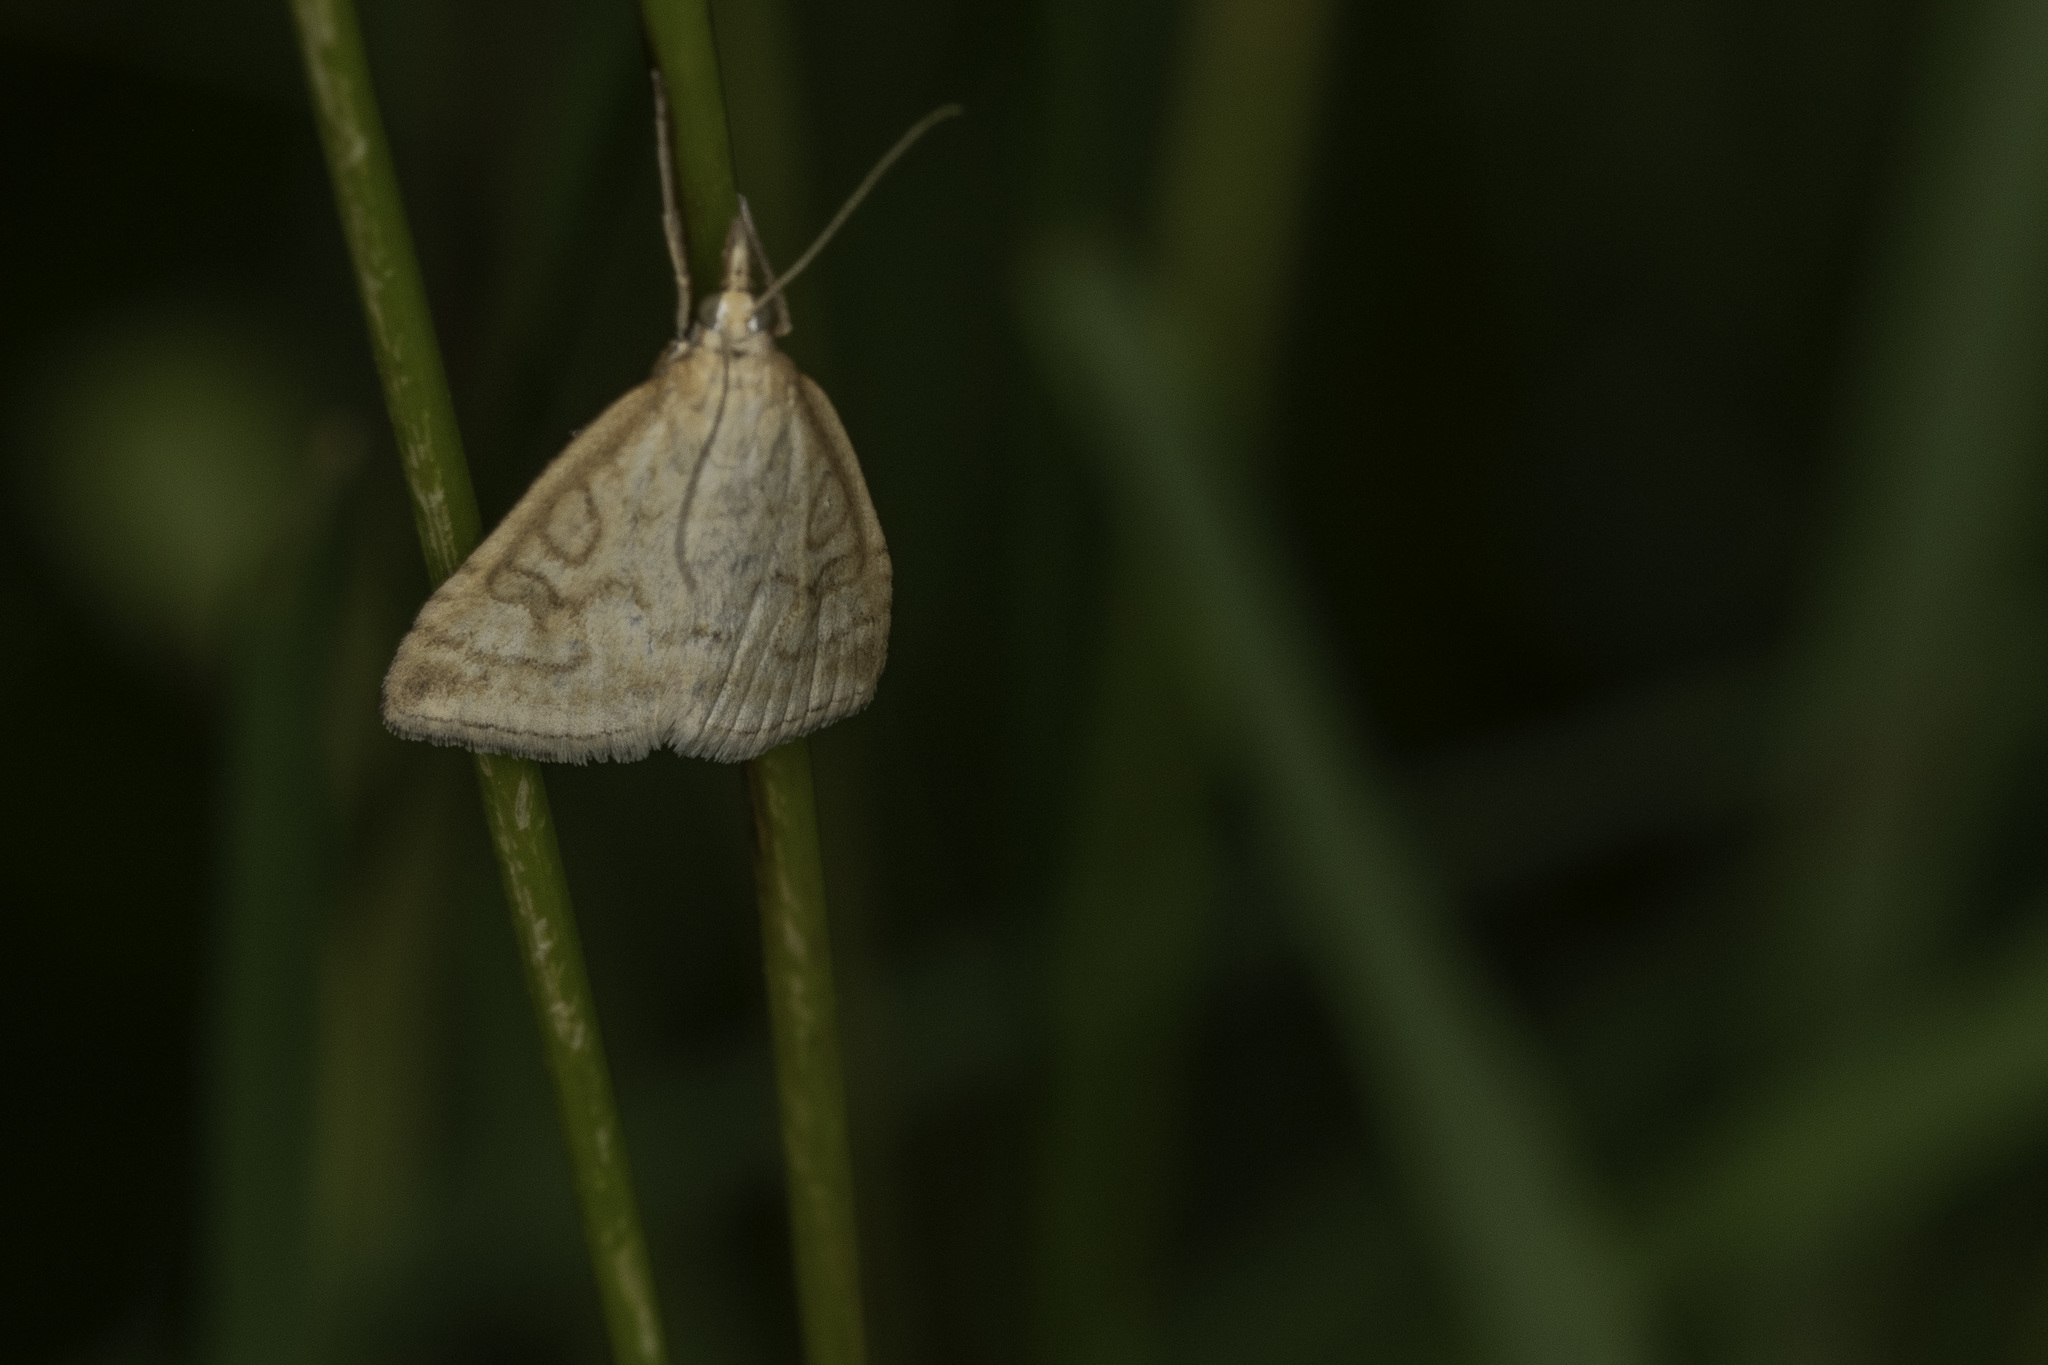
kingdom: Animalia
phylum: Arthropoda
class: Insecta
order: Lepidoptera
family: Crambidae
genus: Udea
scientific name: Udea lutealis
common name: Pale straw pearl
